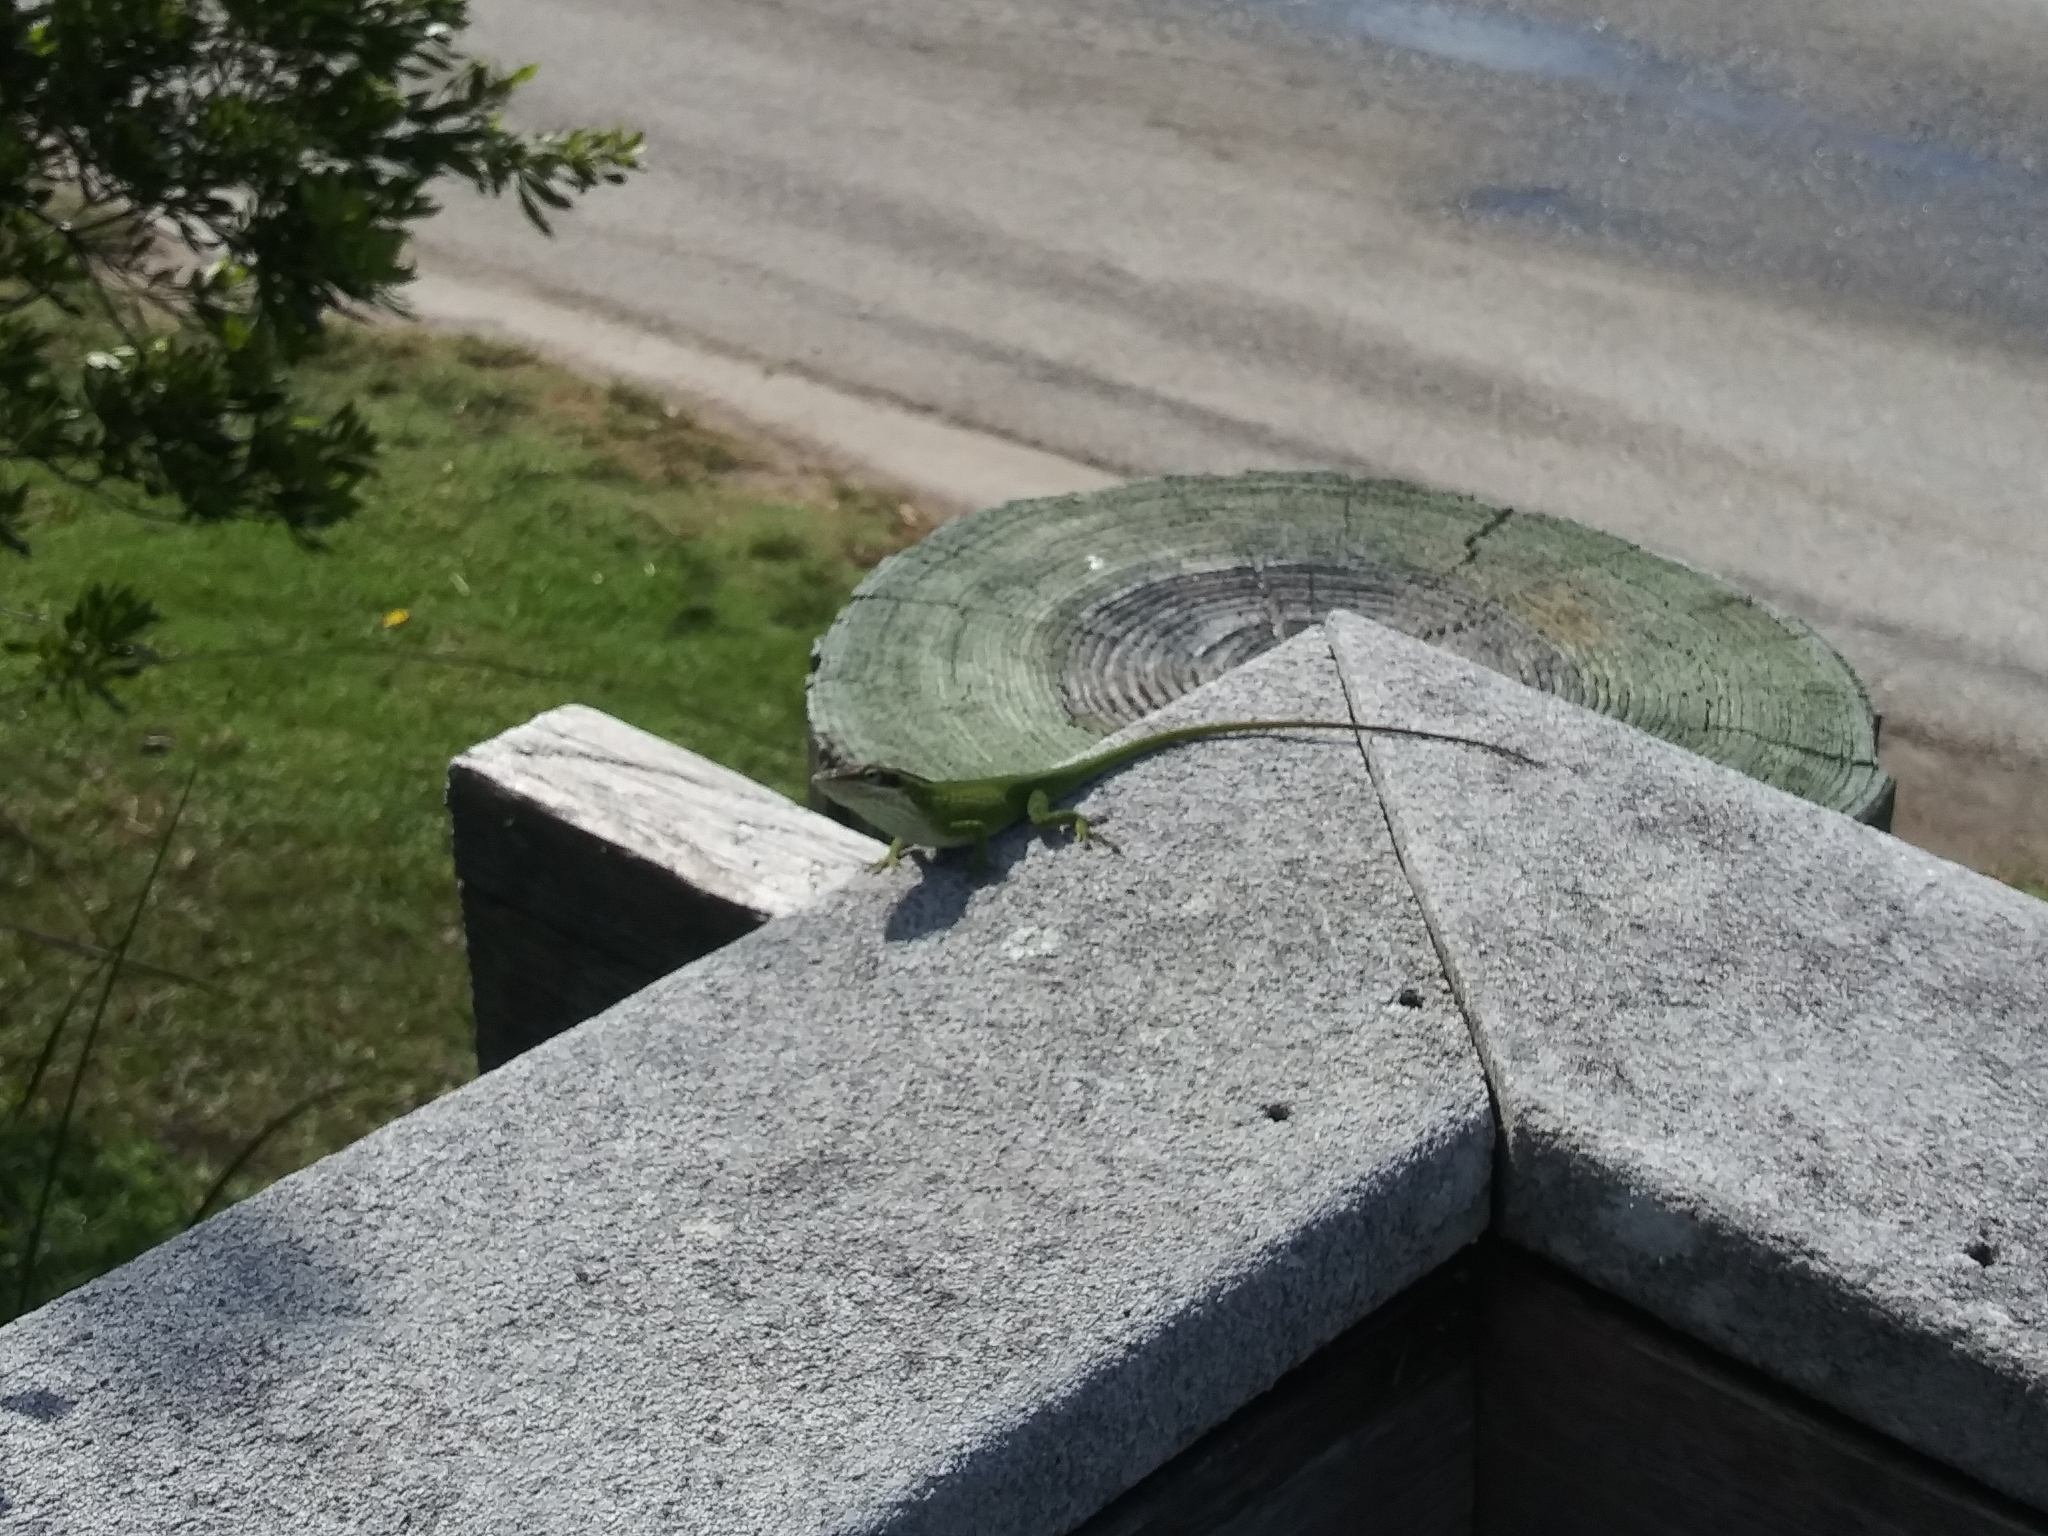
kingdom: Animalia
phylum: Chordata
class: Squamata
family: Dactyloidae
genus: Anolis
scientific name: Anolis carolinensis
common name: Green anole
